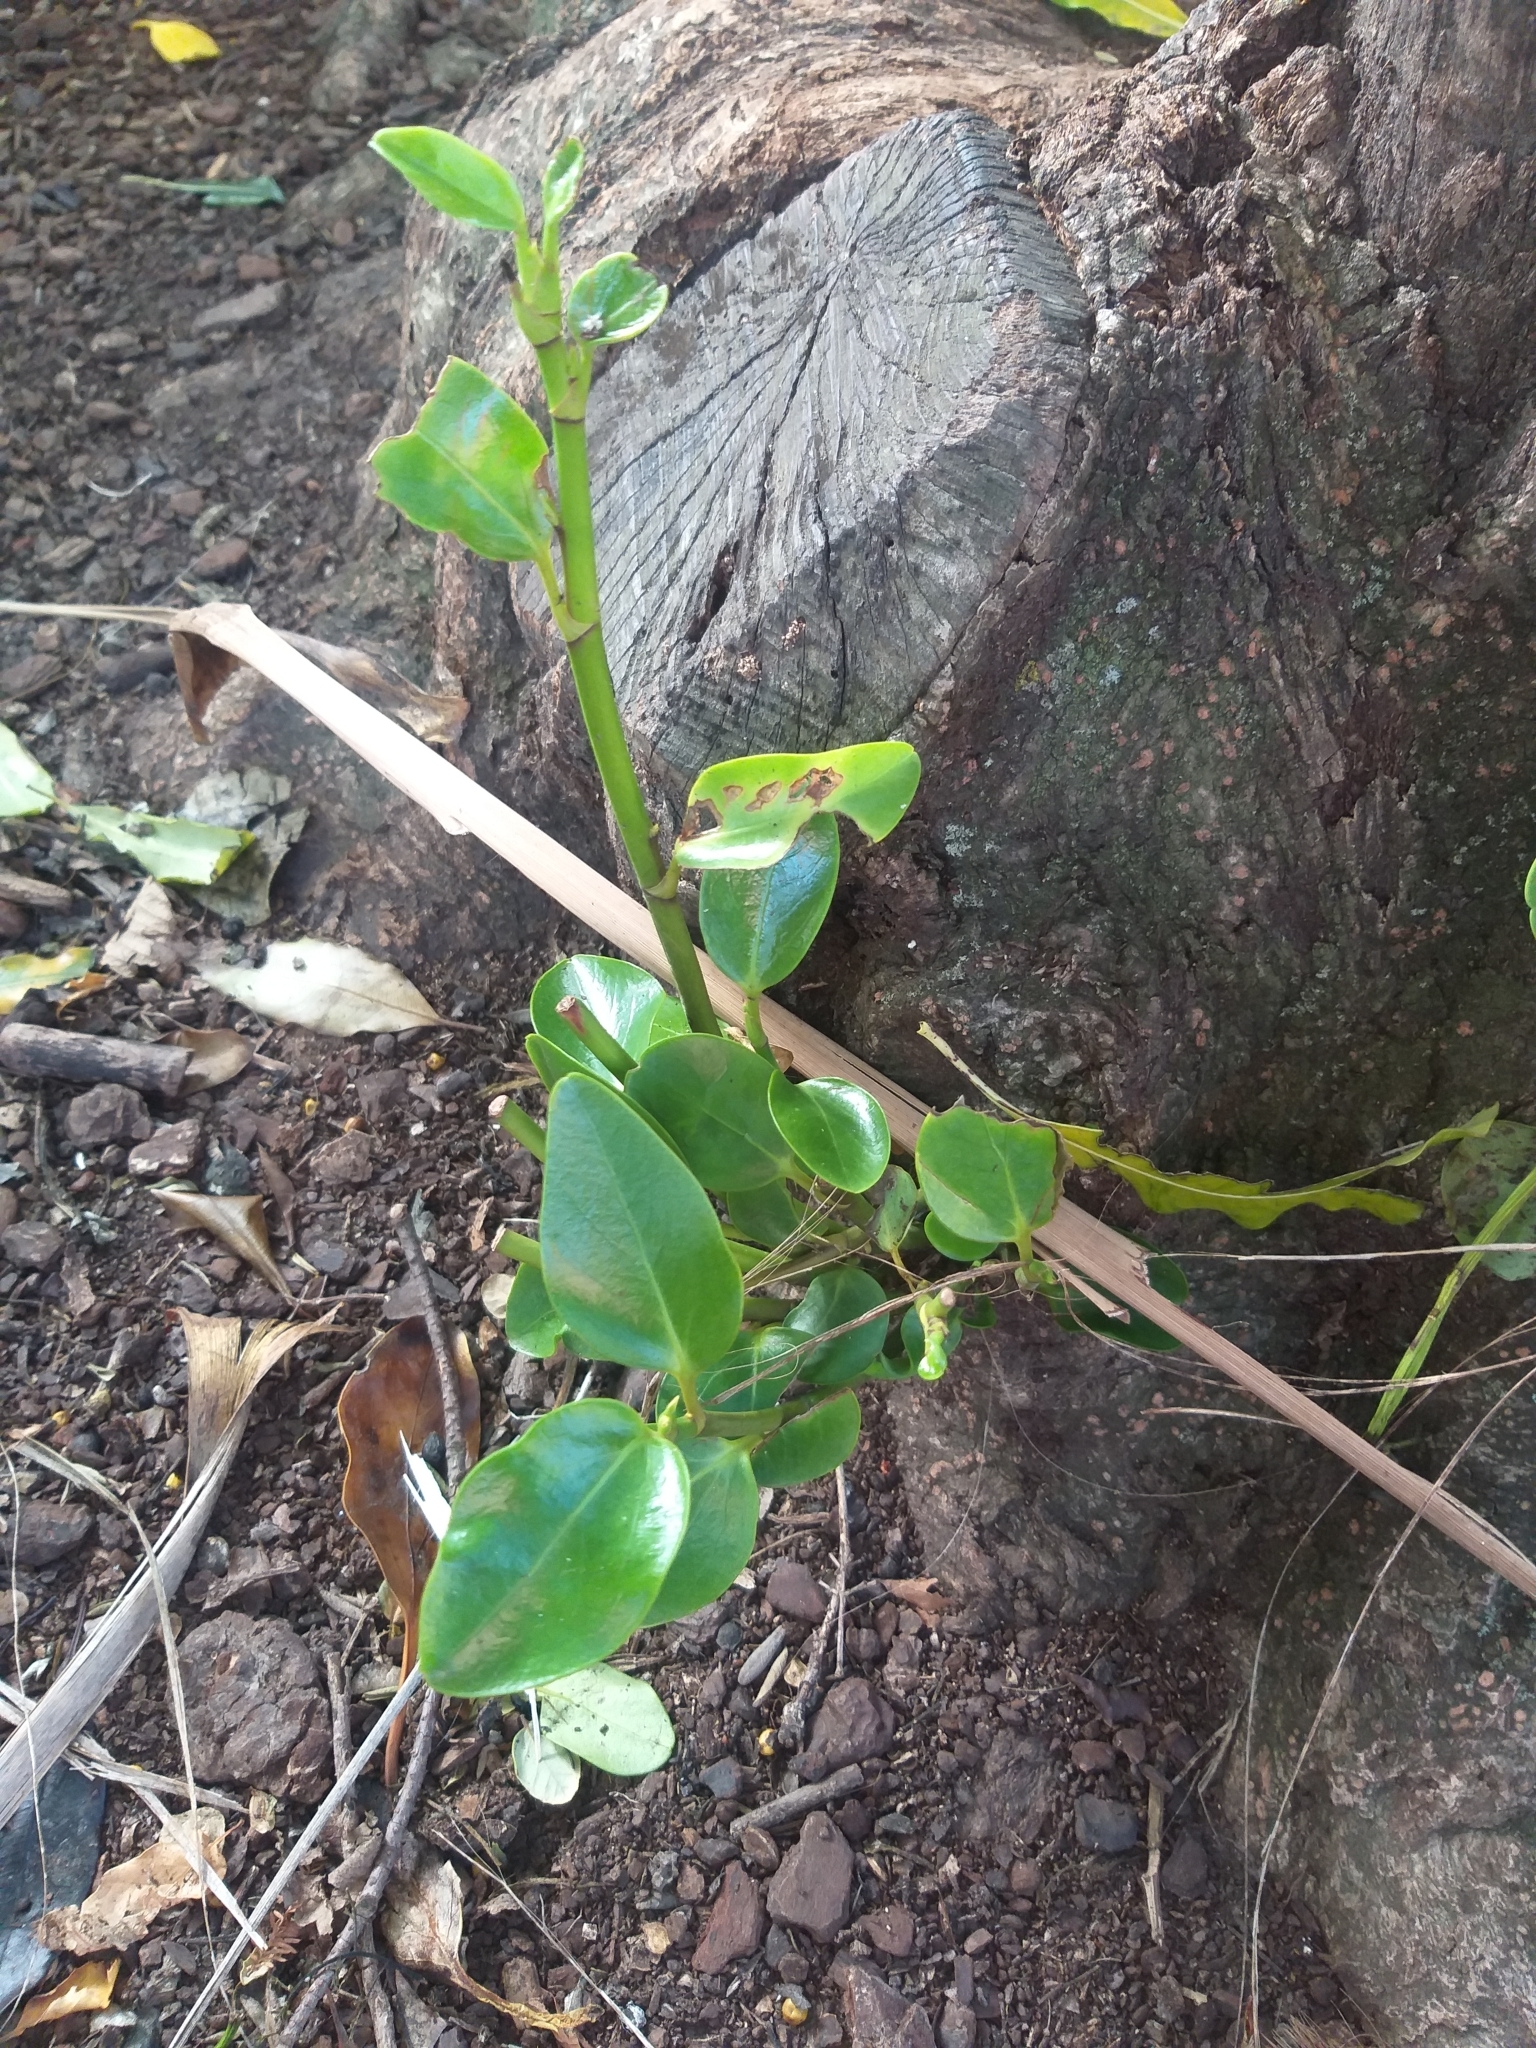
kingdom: Plantae
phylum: Tracheophyta
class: Magnoliopsida
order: Apiales
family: Griseliniaceae
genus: Griselinia
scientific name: Griselinia littoralis
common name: New zealand broadleaf
